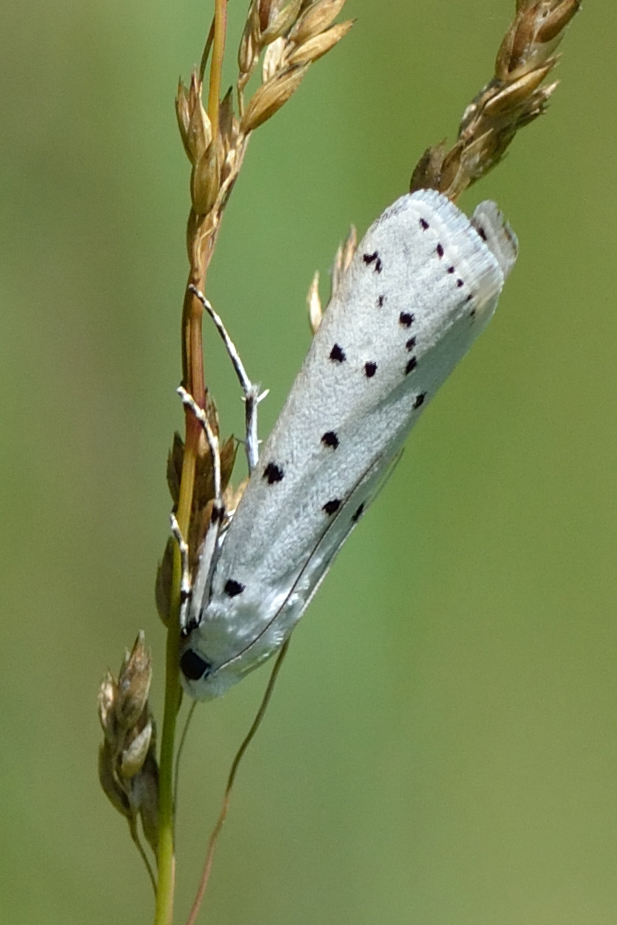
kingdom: Animalia
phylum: Arthropoda
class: Insecta
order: Lepidoptera
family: Pyralidae
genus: Myelois
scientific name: Myelois circumvoluta
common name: Thistle ermine
